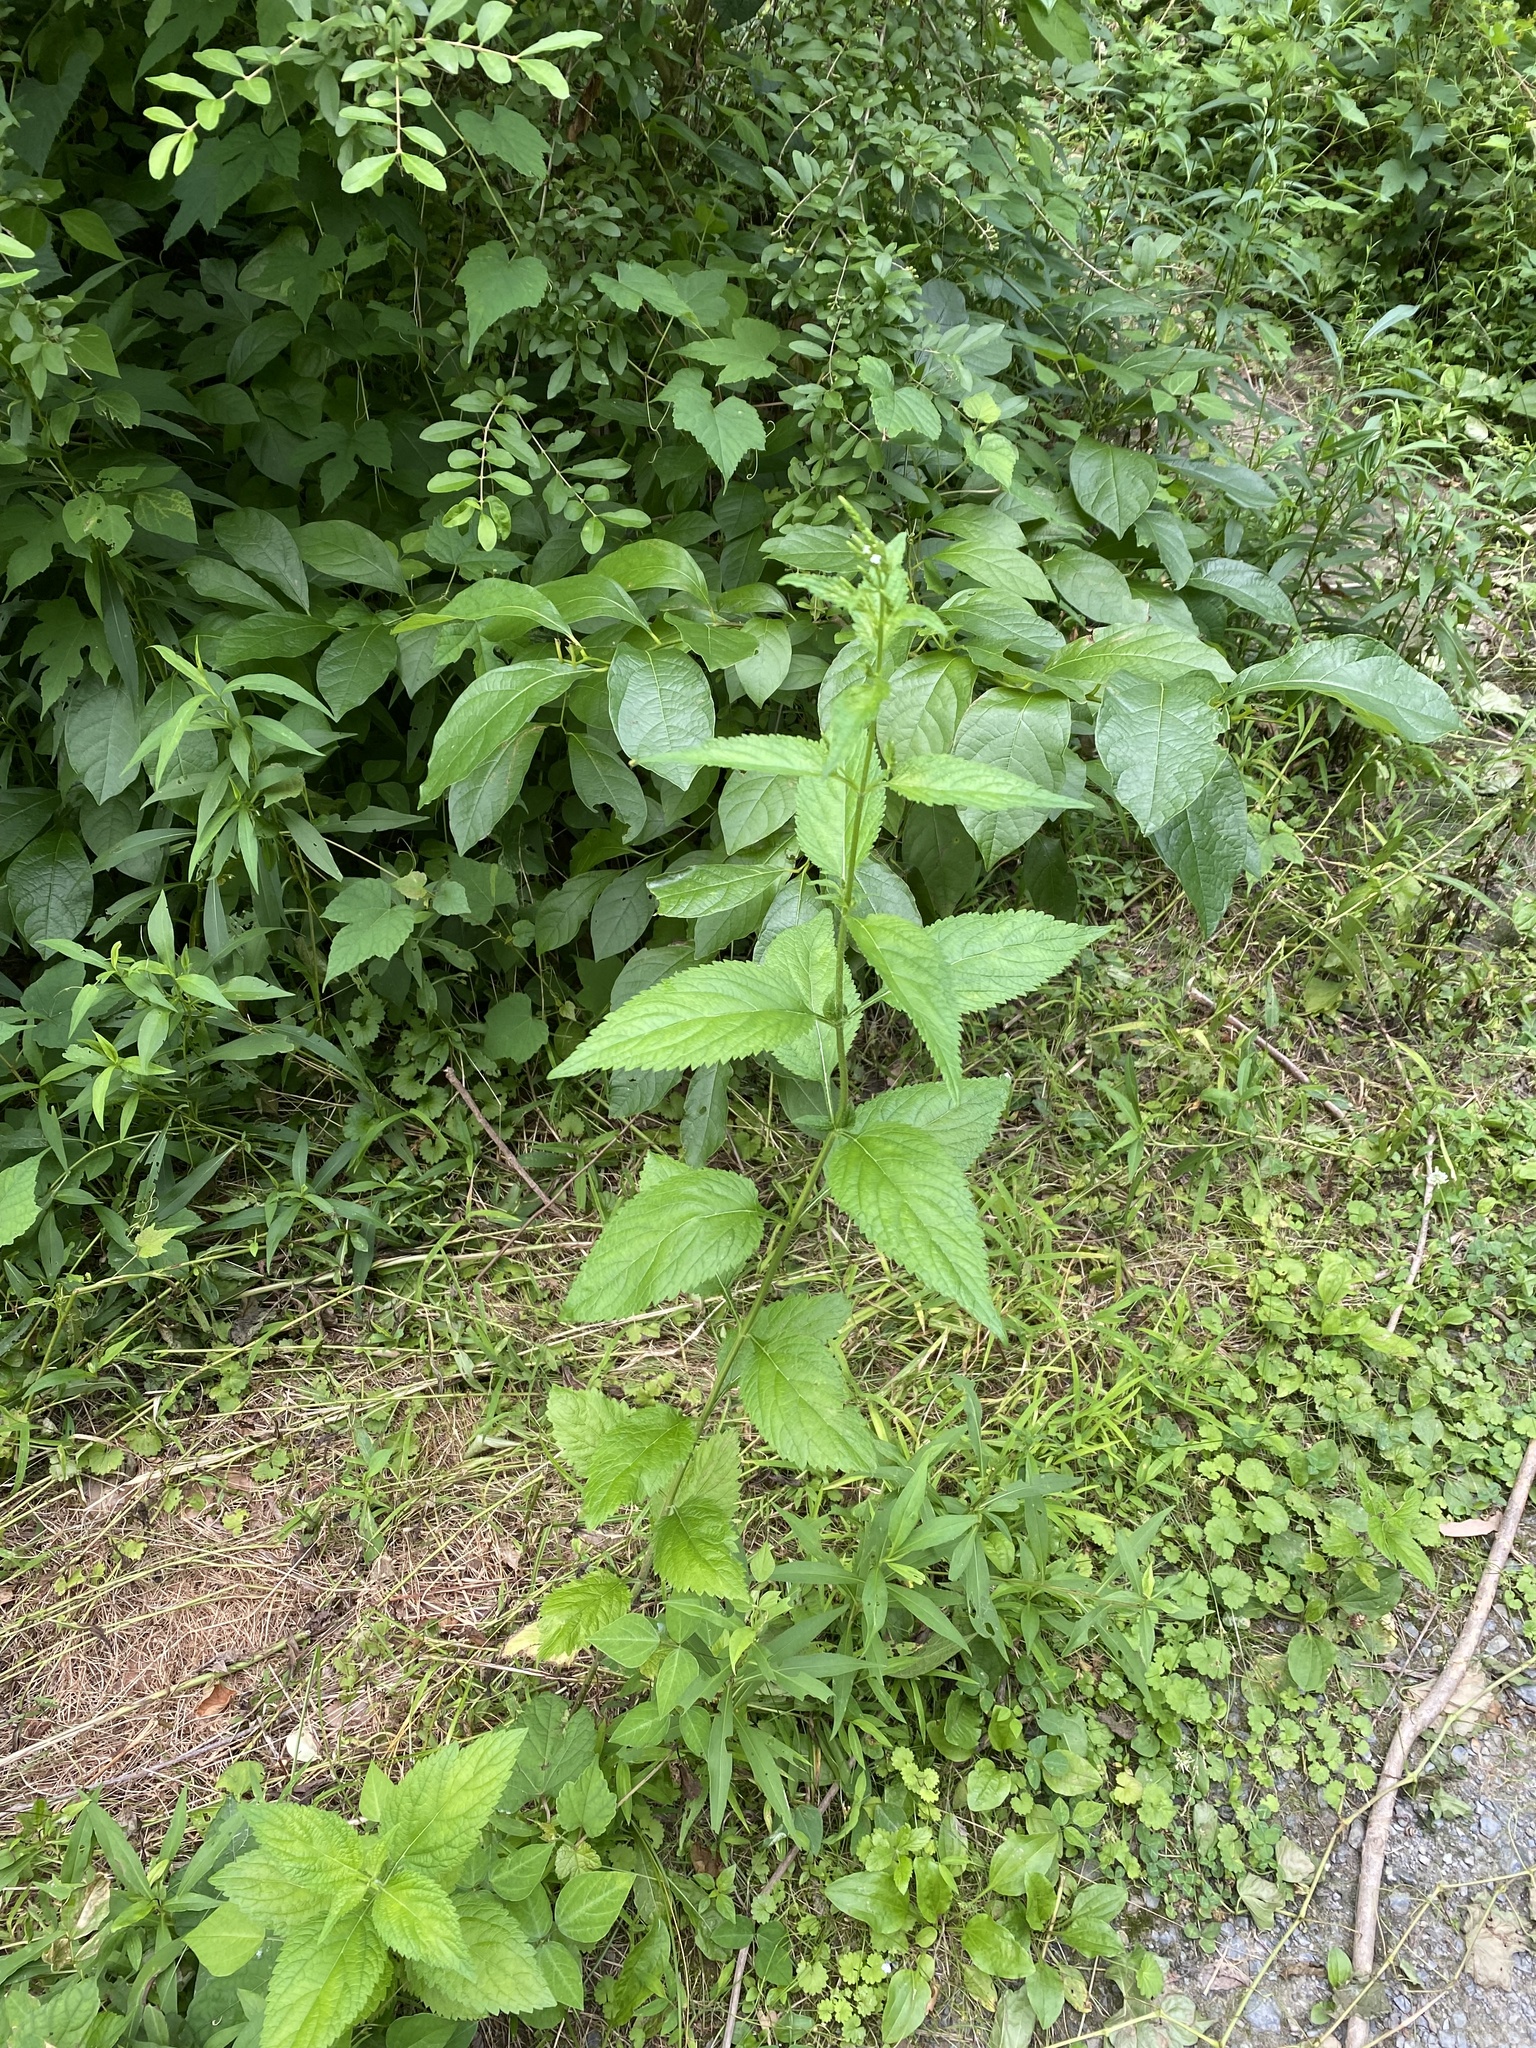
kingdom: Plantae
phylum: Tracheophyta
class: Magnoliopsida
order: Lamiales
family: Verbenaceae
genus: Verbena
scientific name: Verbena urticifolia
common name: Nettle-leaved vervain
